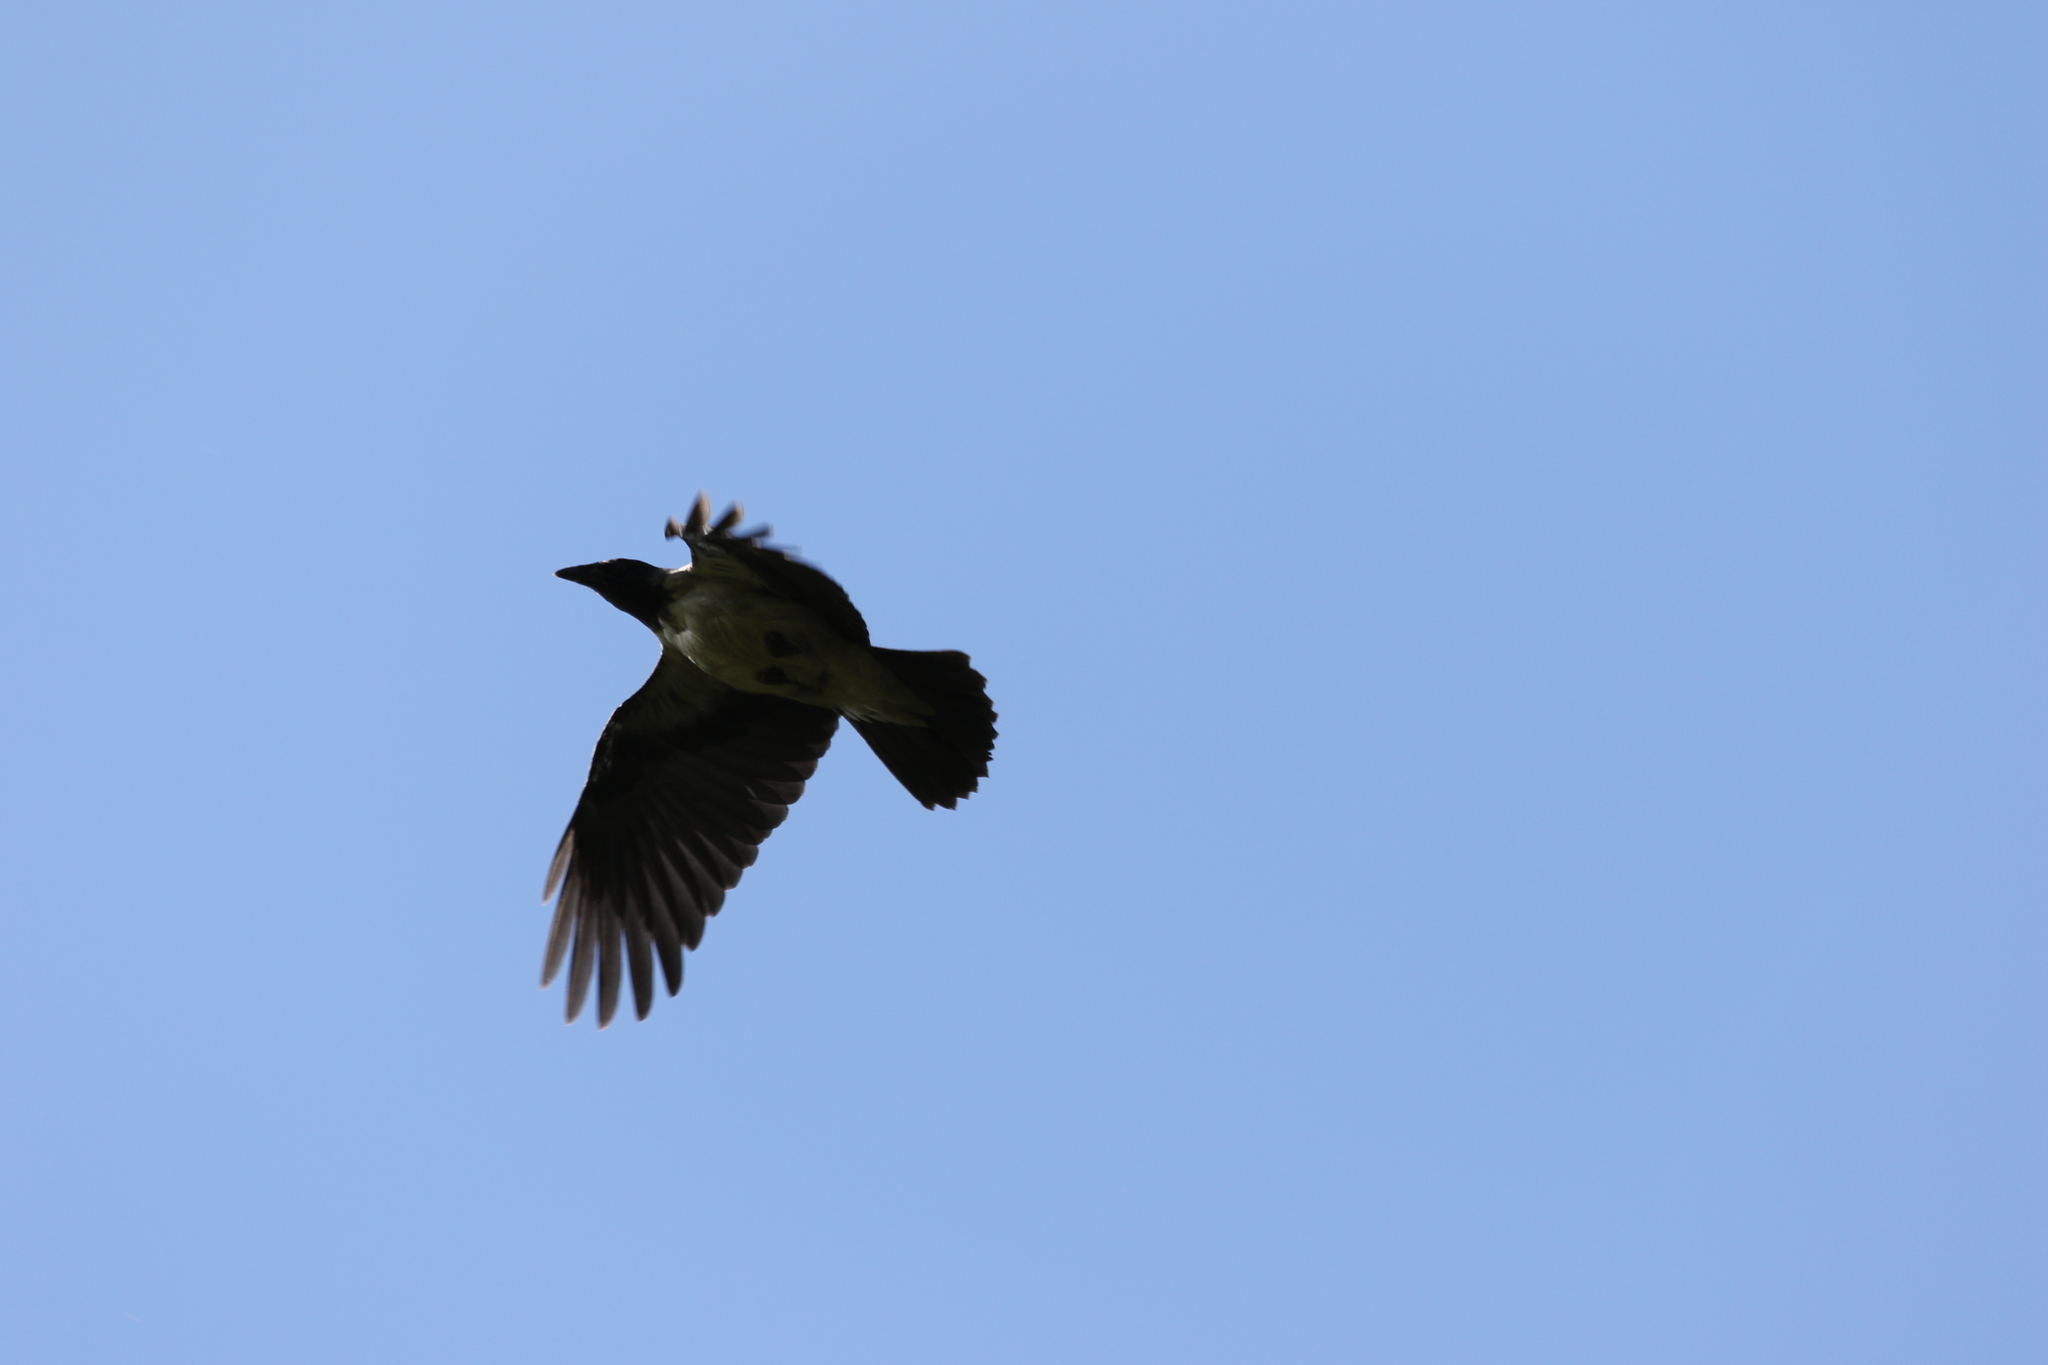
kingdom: Animalia
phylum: Chordata
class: Aves
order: Passeriformes
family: Corvidae
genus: Corvus
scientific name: Corvus cornix
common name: Hooded crow
